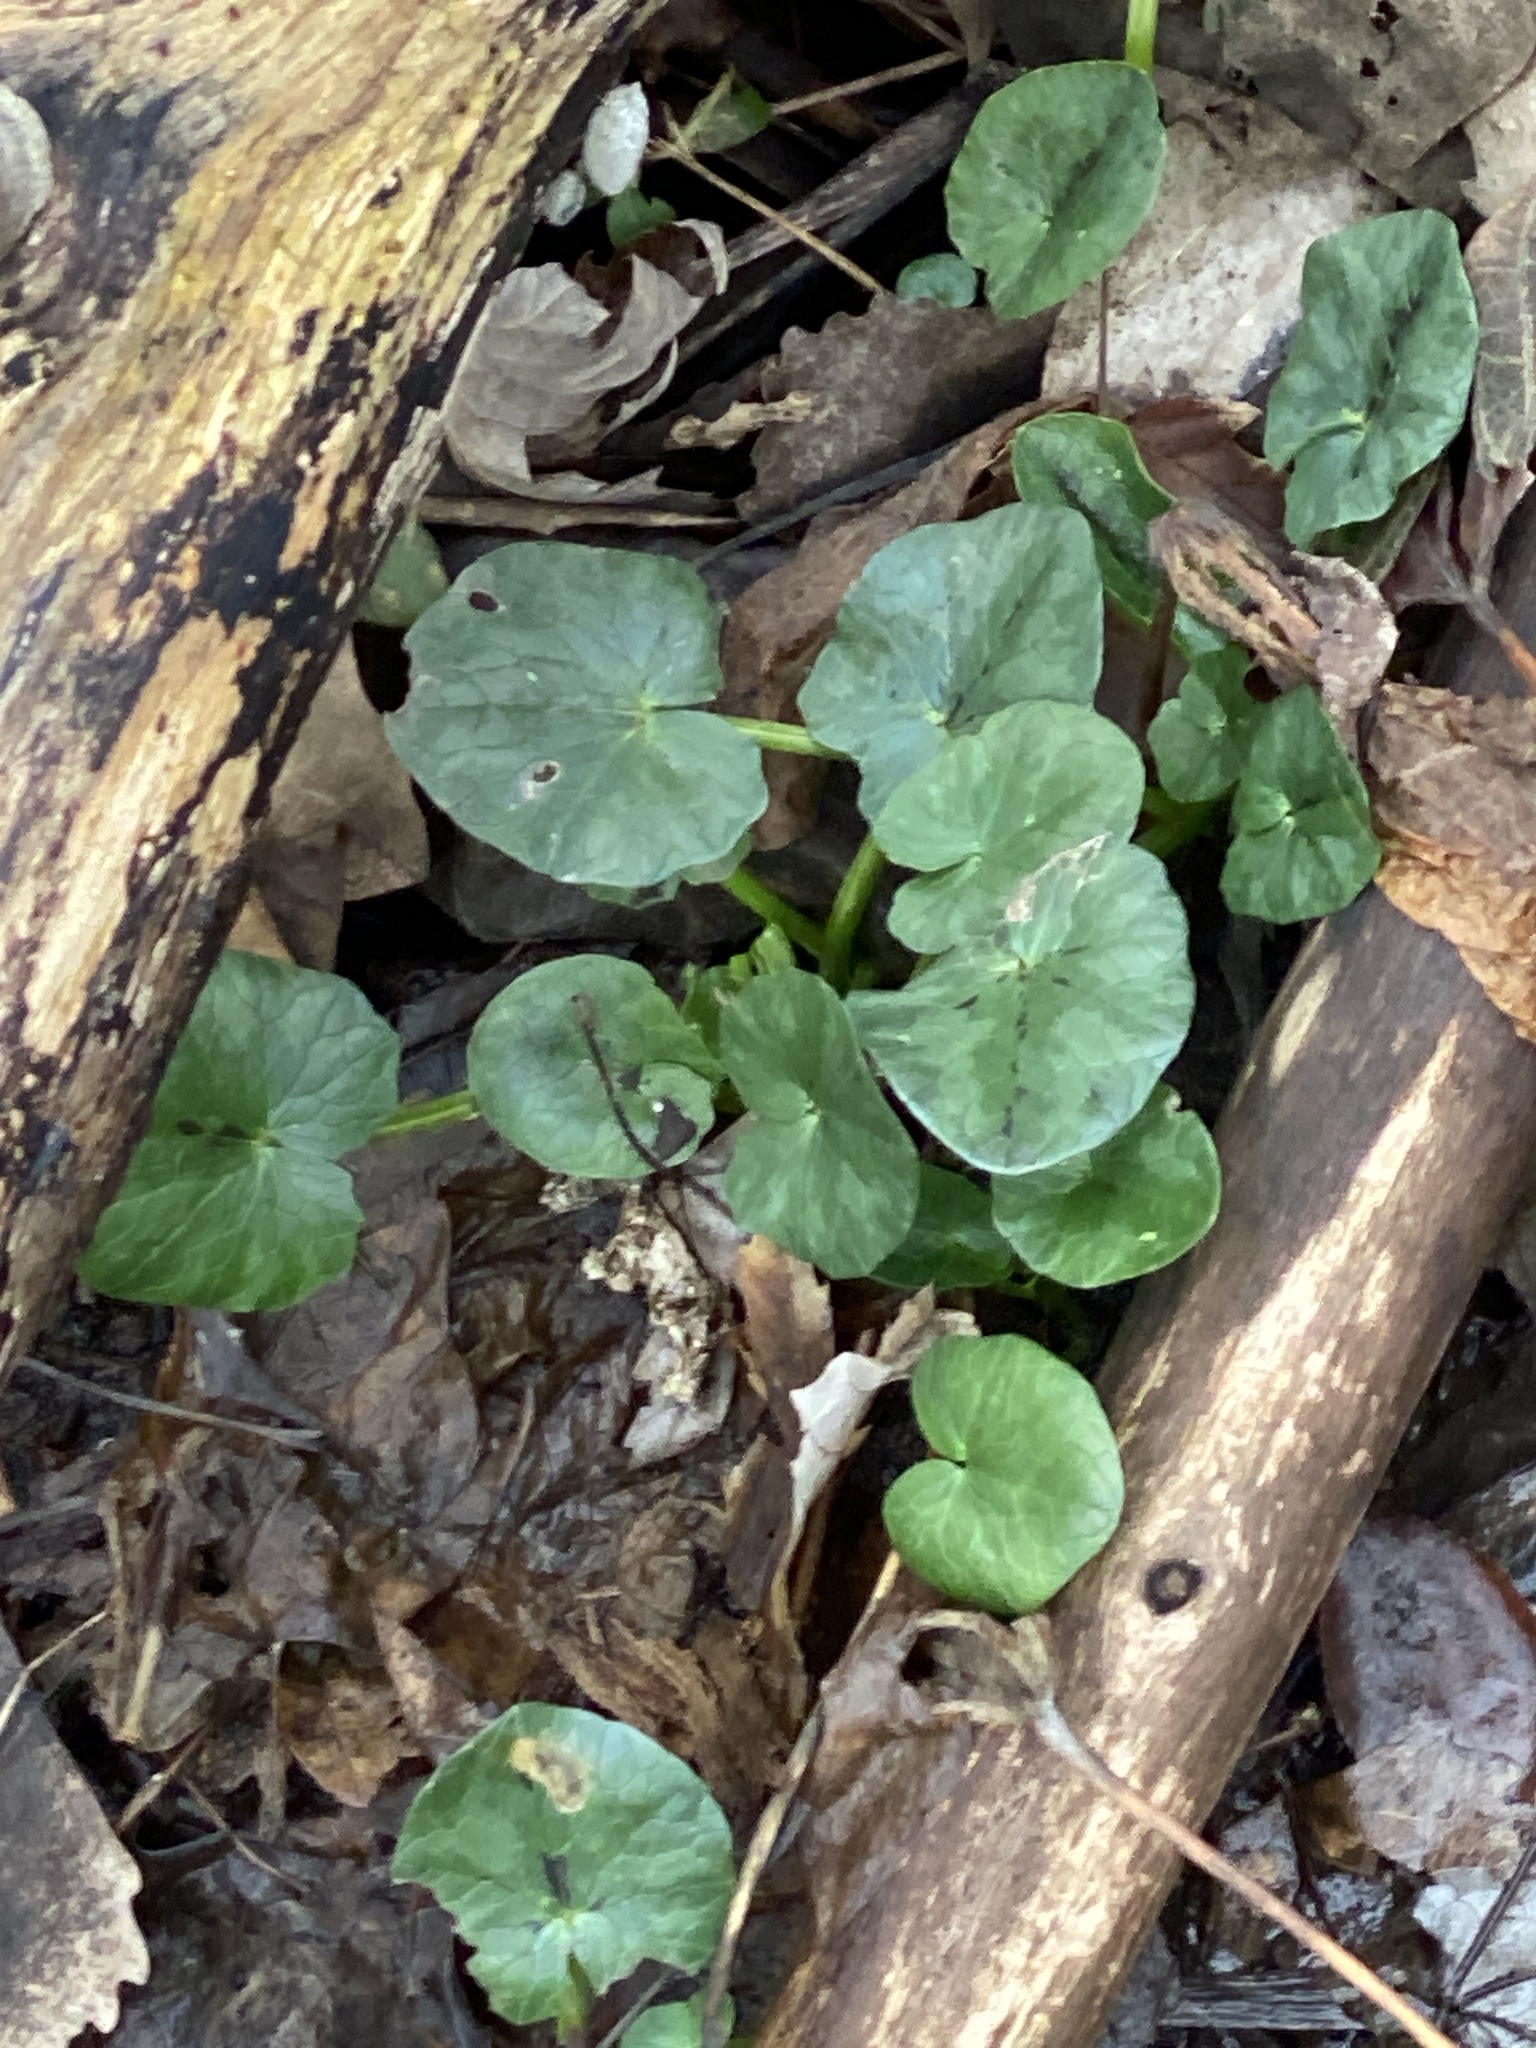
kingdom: Plantae
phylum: Tracheophyta
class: Magnoliopsida
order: Ranunculales
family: Ranunculaceae
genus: Ficaria
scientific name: Ficaria verna
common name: Lesser celandine
